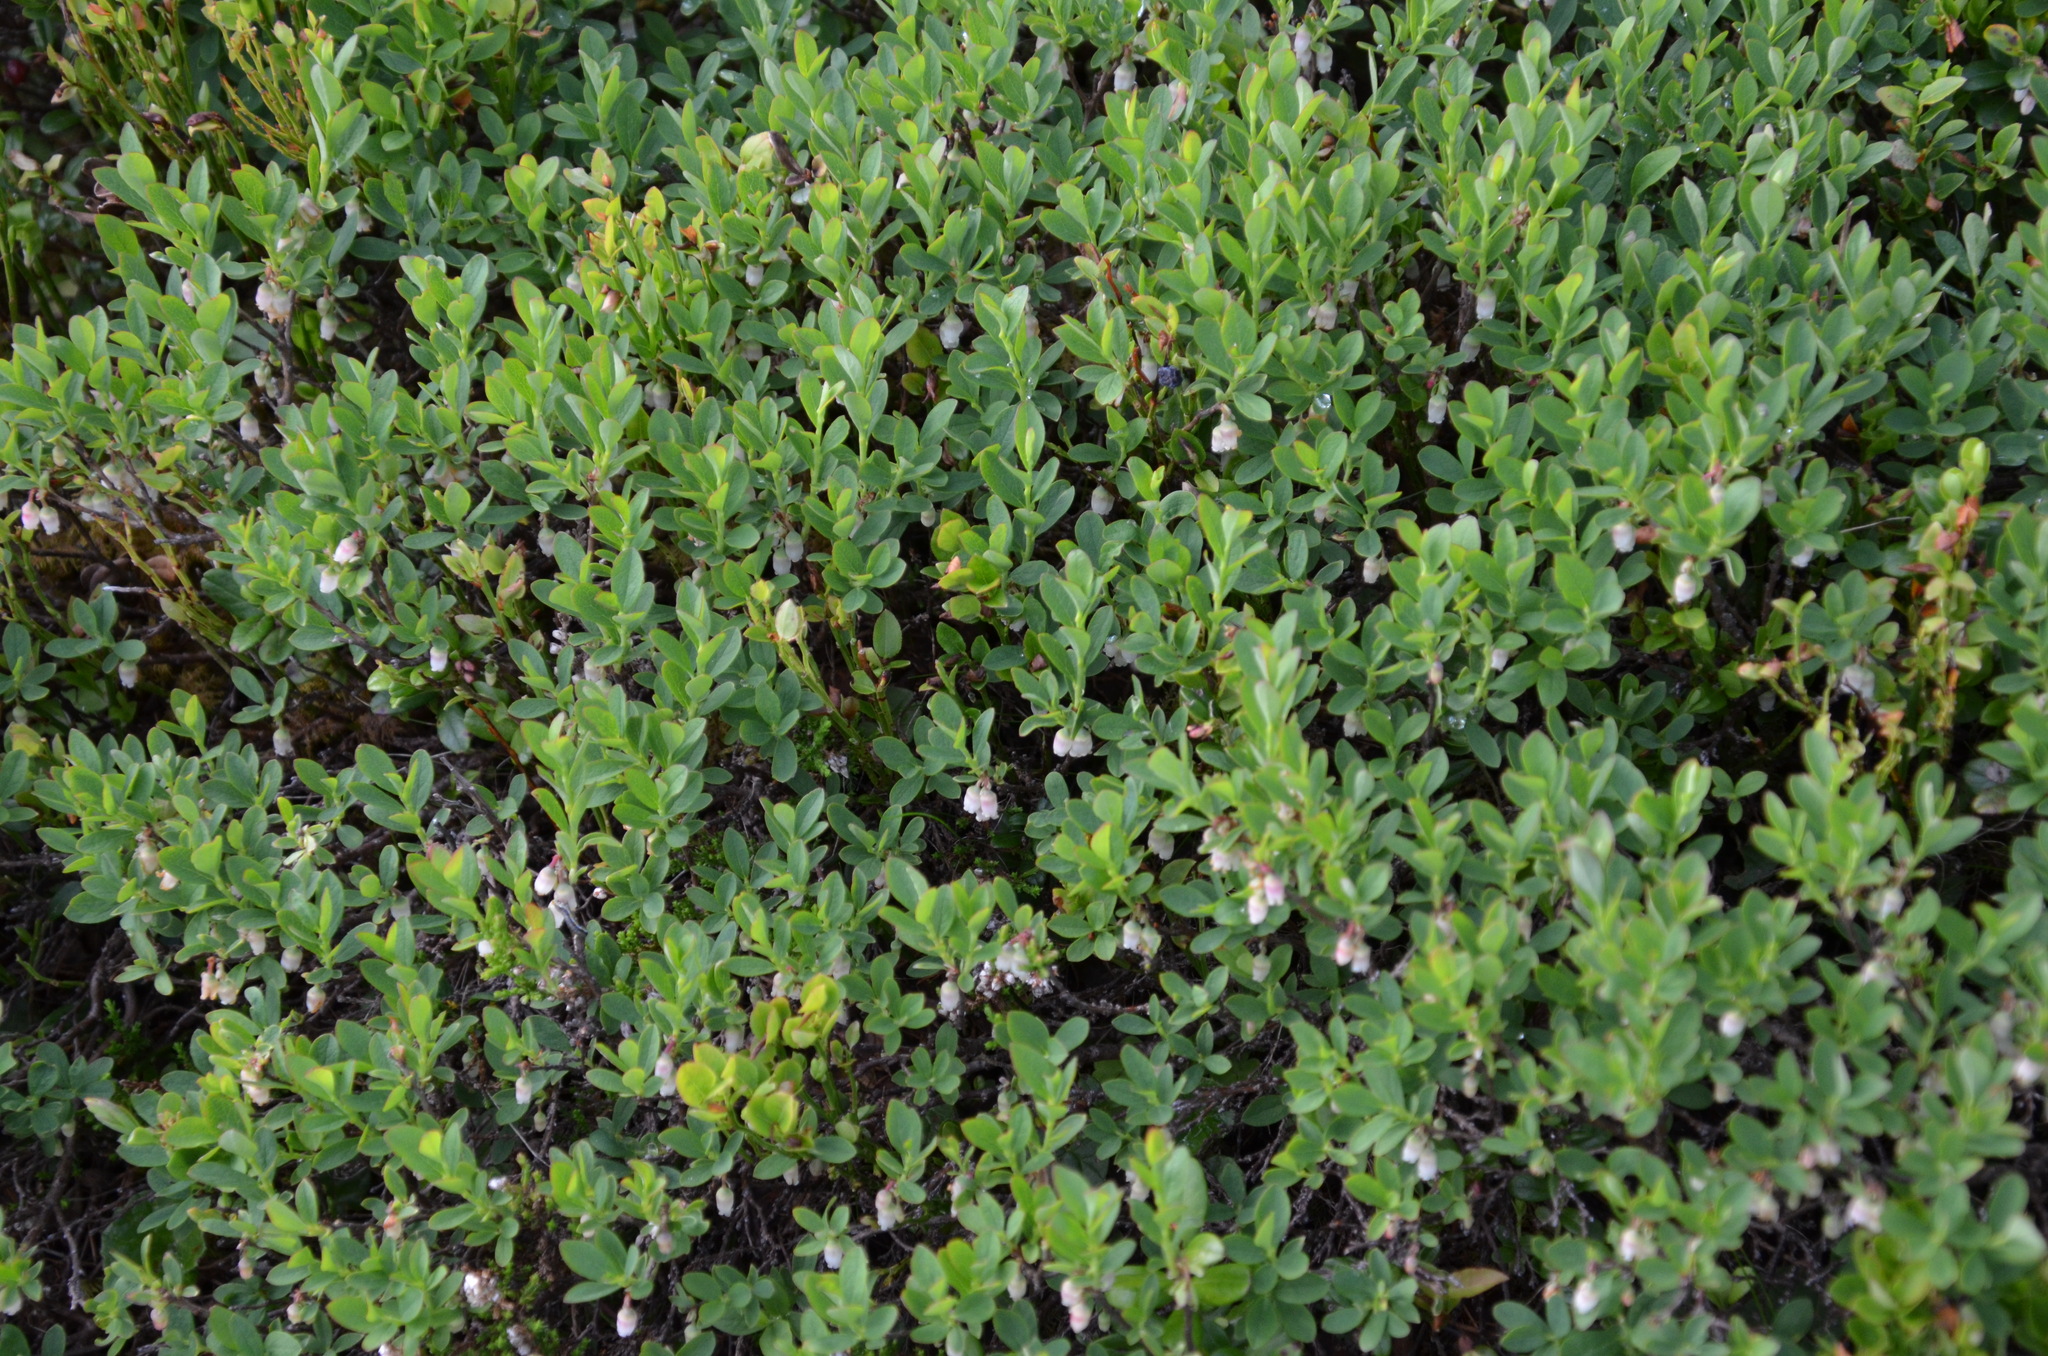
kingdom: Plantae
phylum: Tracheophyta
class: Magnoliopsida
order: Ericales
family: Ericaceae
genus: Vaccinium
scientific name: Vaccinium uliginosum
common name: Bog bilberry
